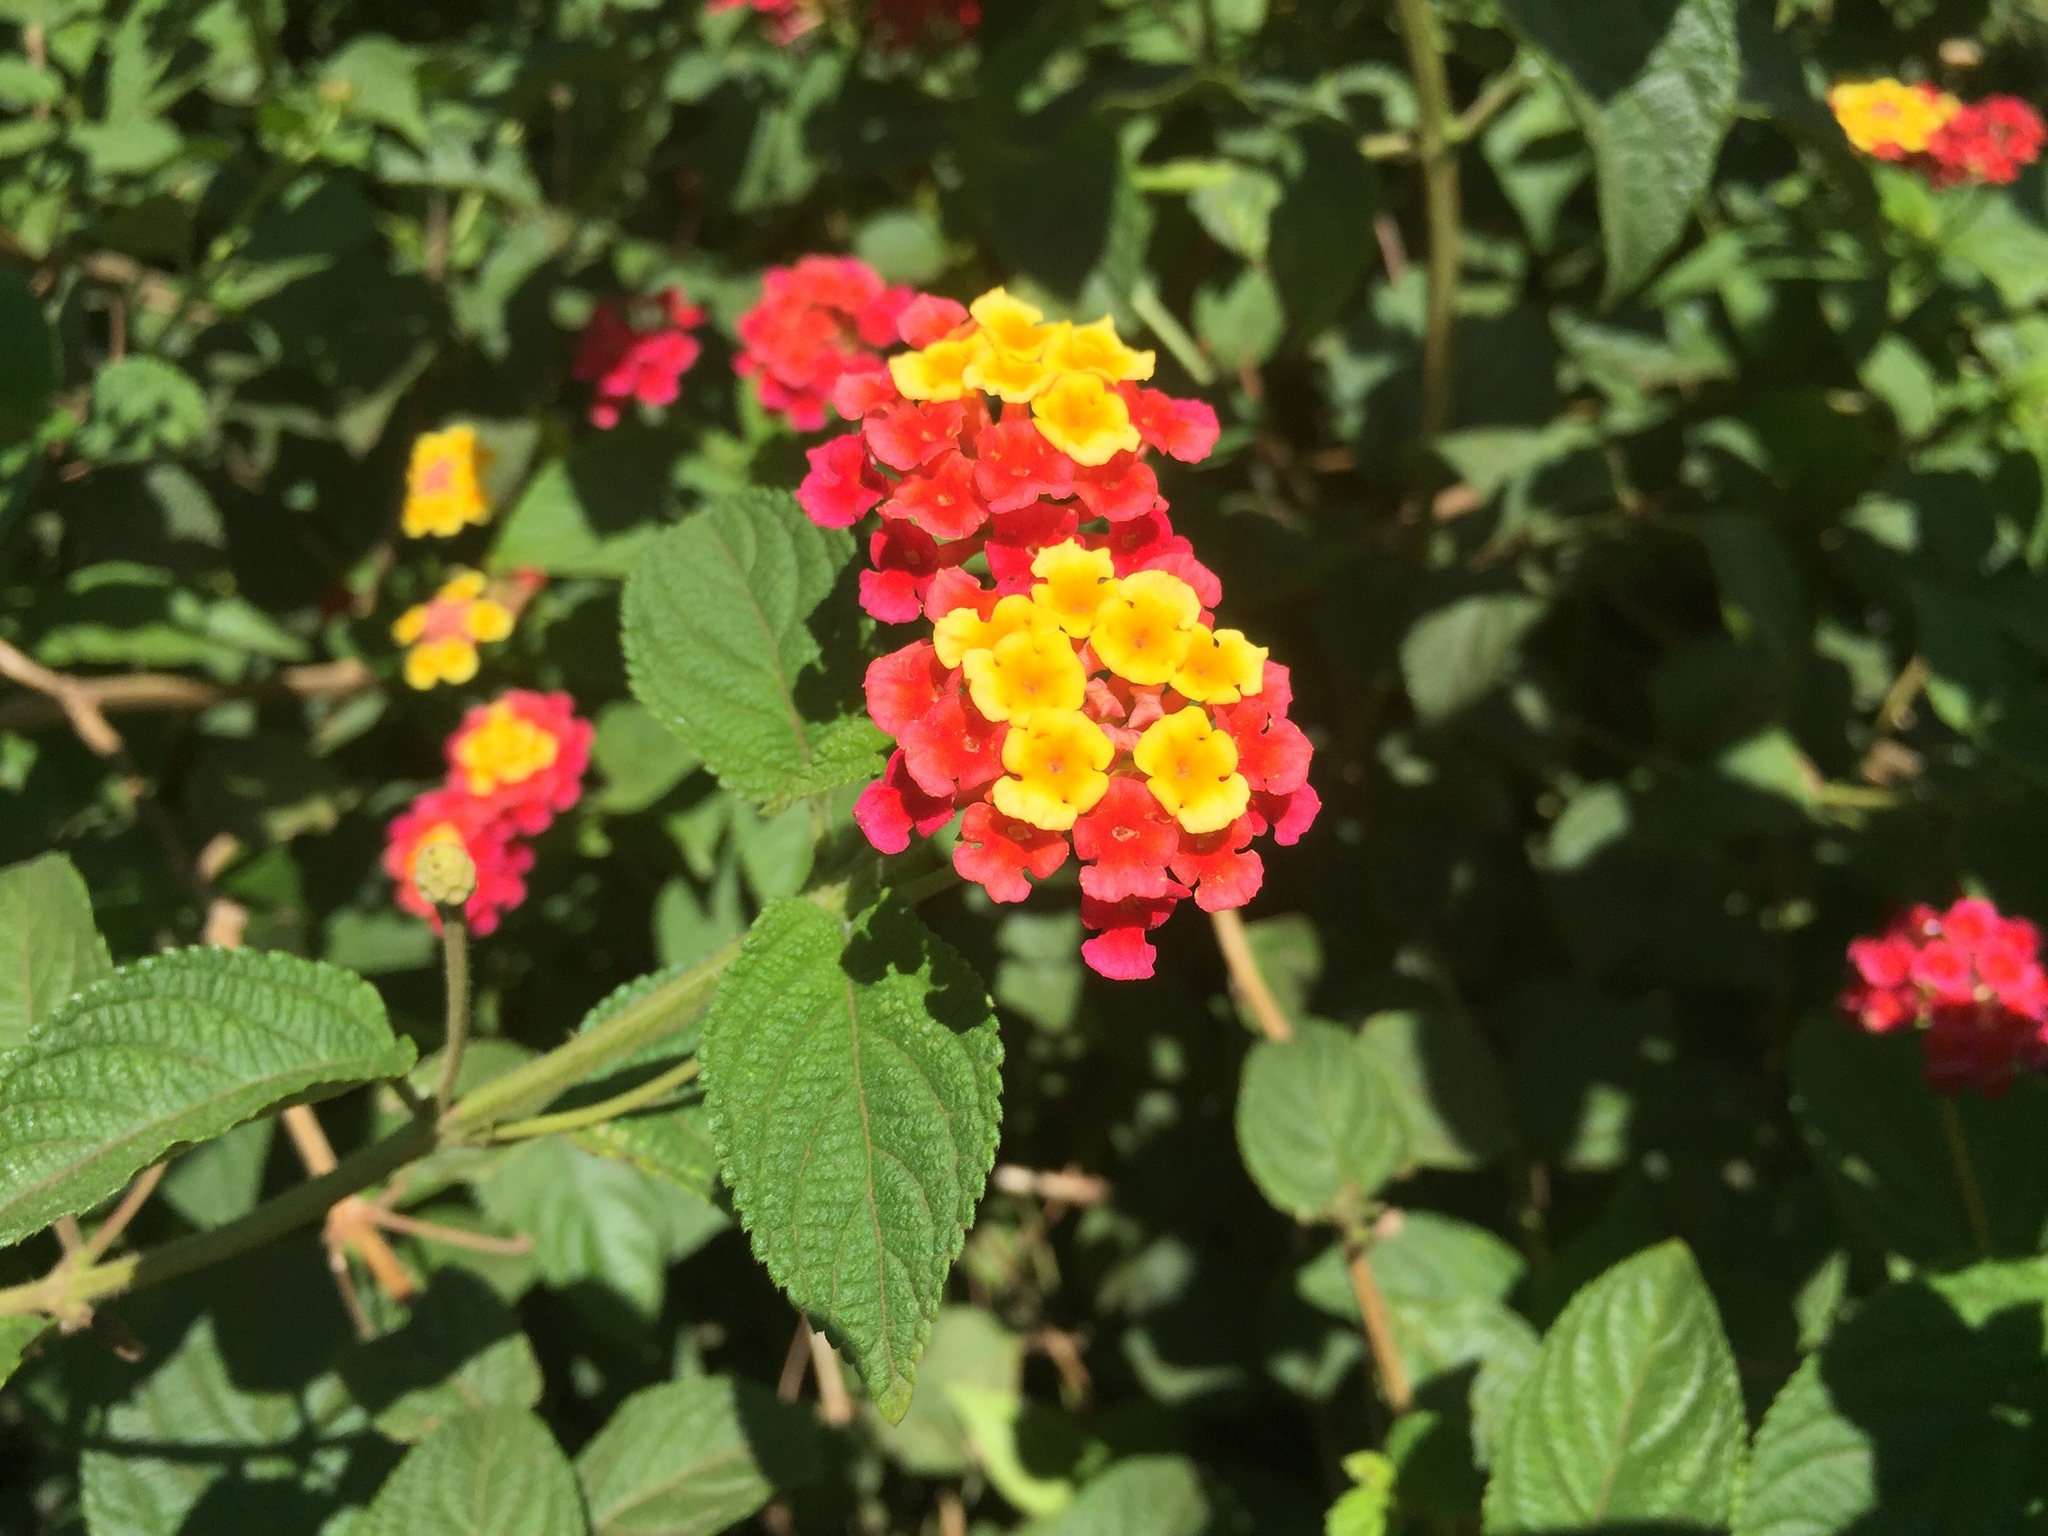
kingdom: Plantae
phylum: Tracheophyta
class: Magnoliopsida
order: Lamiales
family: Verbenaceae
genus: Lantana
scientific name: Lantana camara
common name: Lantana
